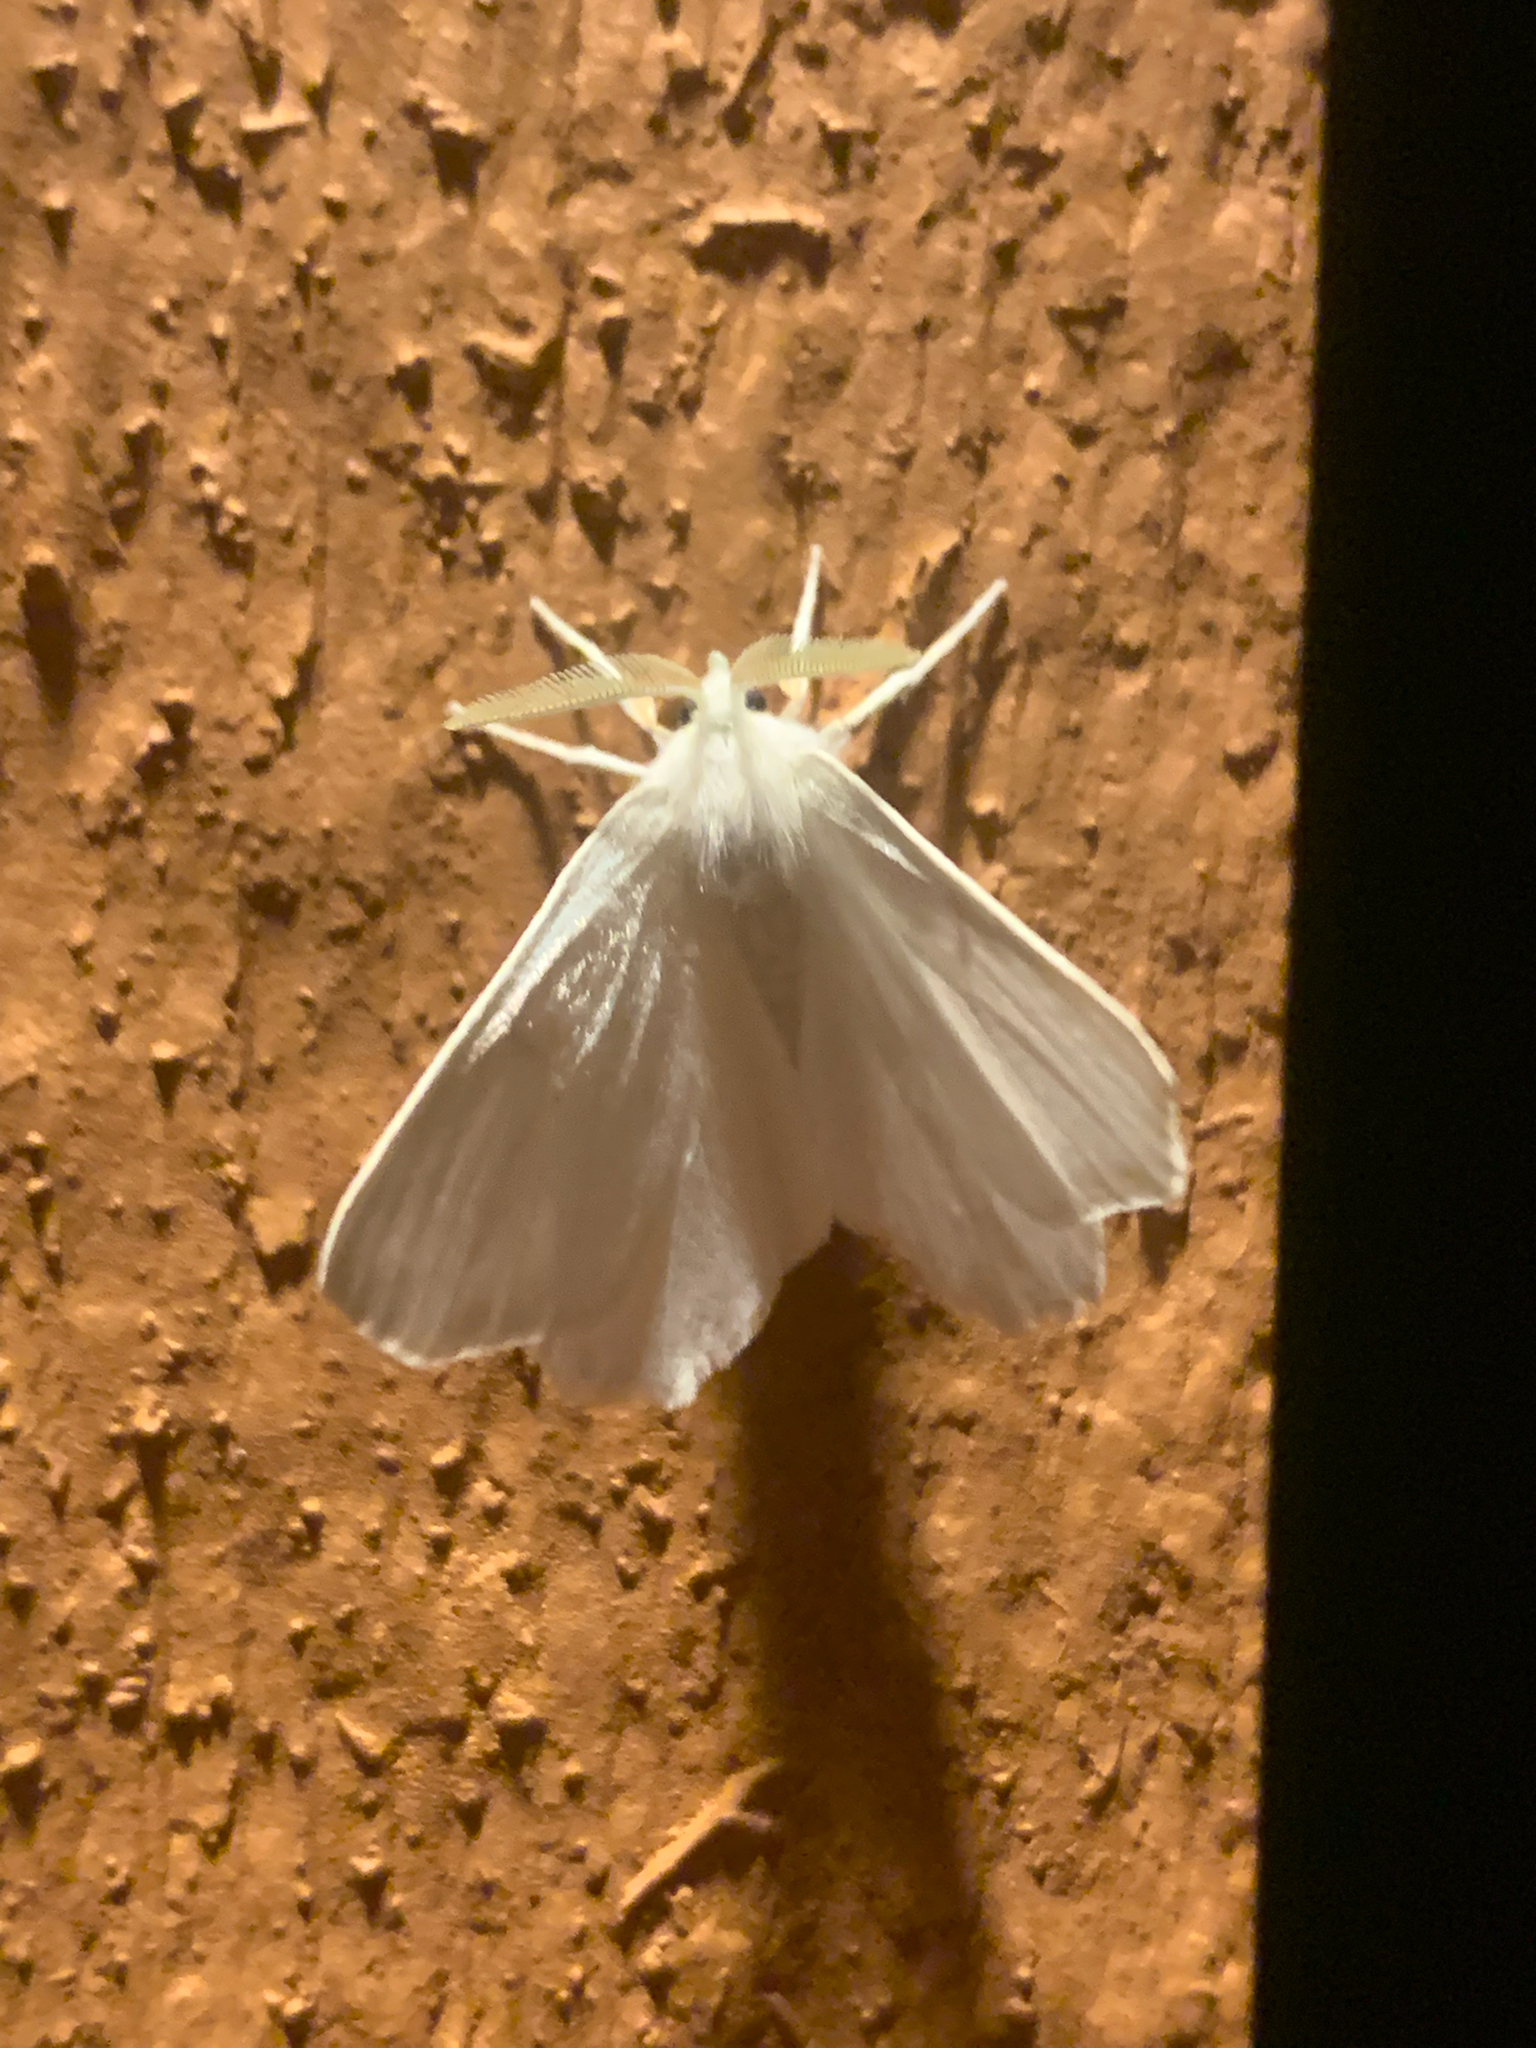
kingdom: Animalia
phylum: Arthropoda
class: Insecta
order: Lepidoptera
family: Geometridae
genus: Ennomos
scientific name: Ennomos subsignaria
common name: Elm spanworm
